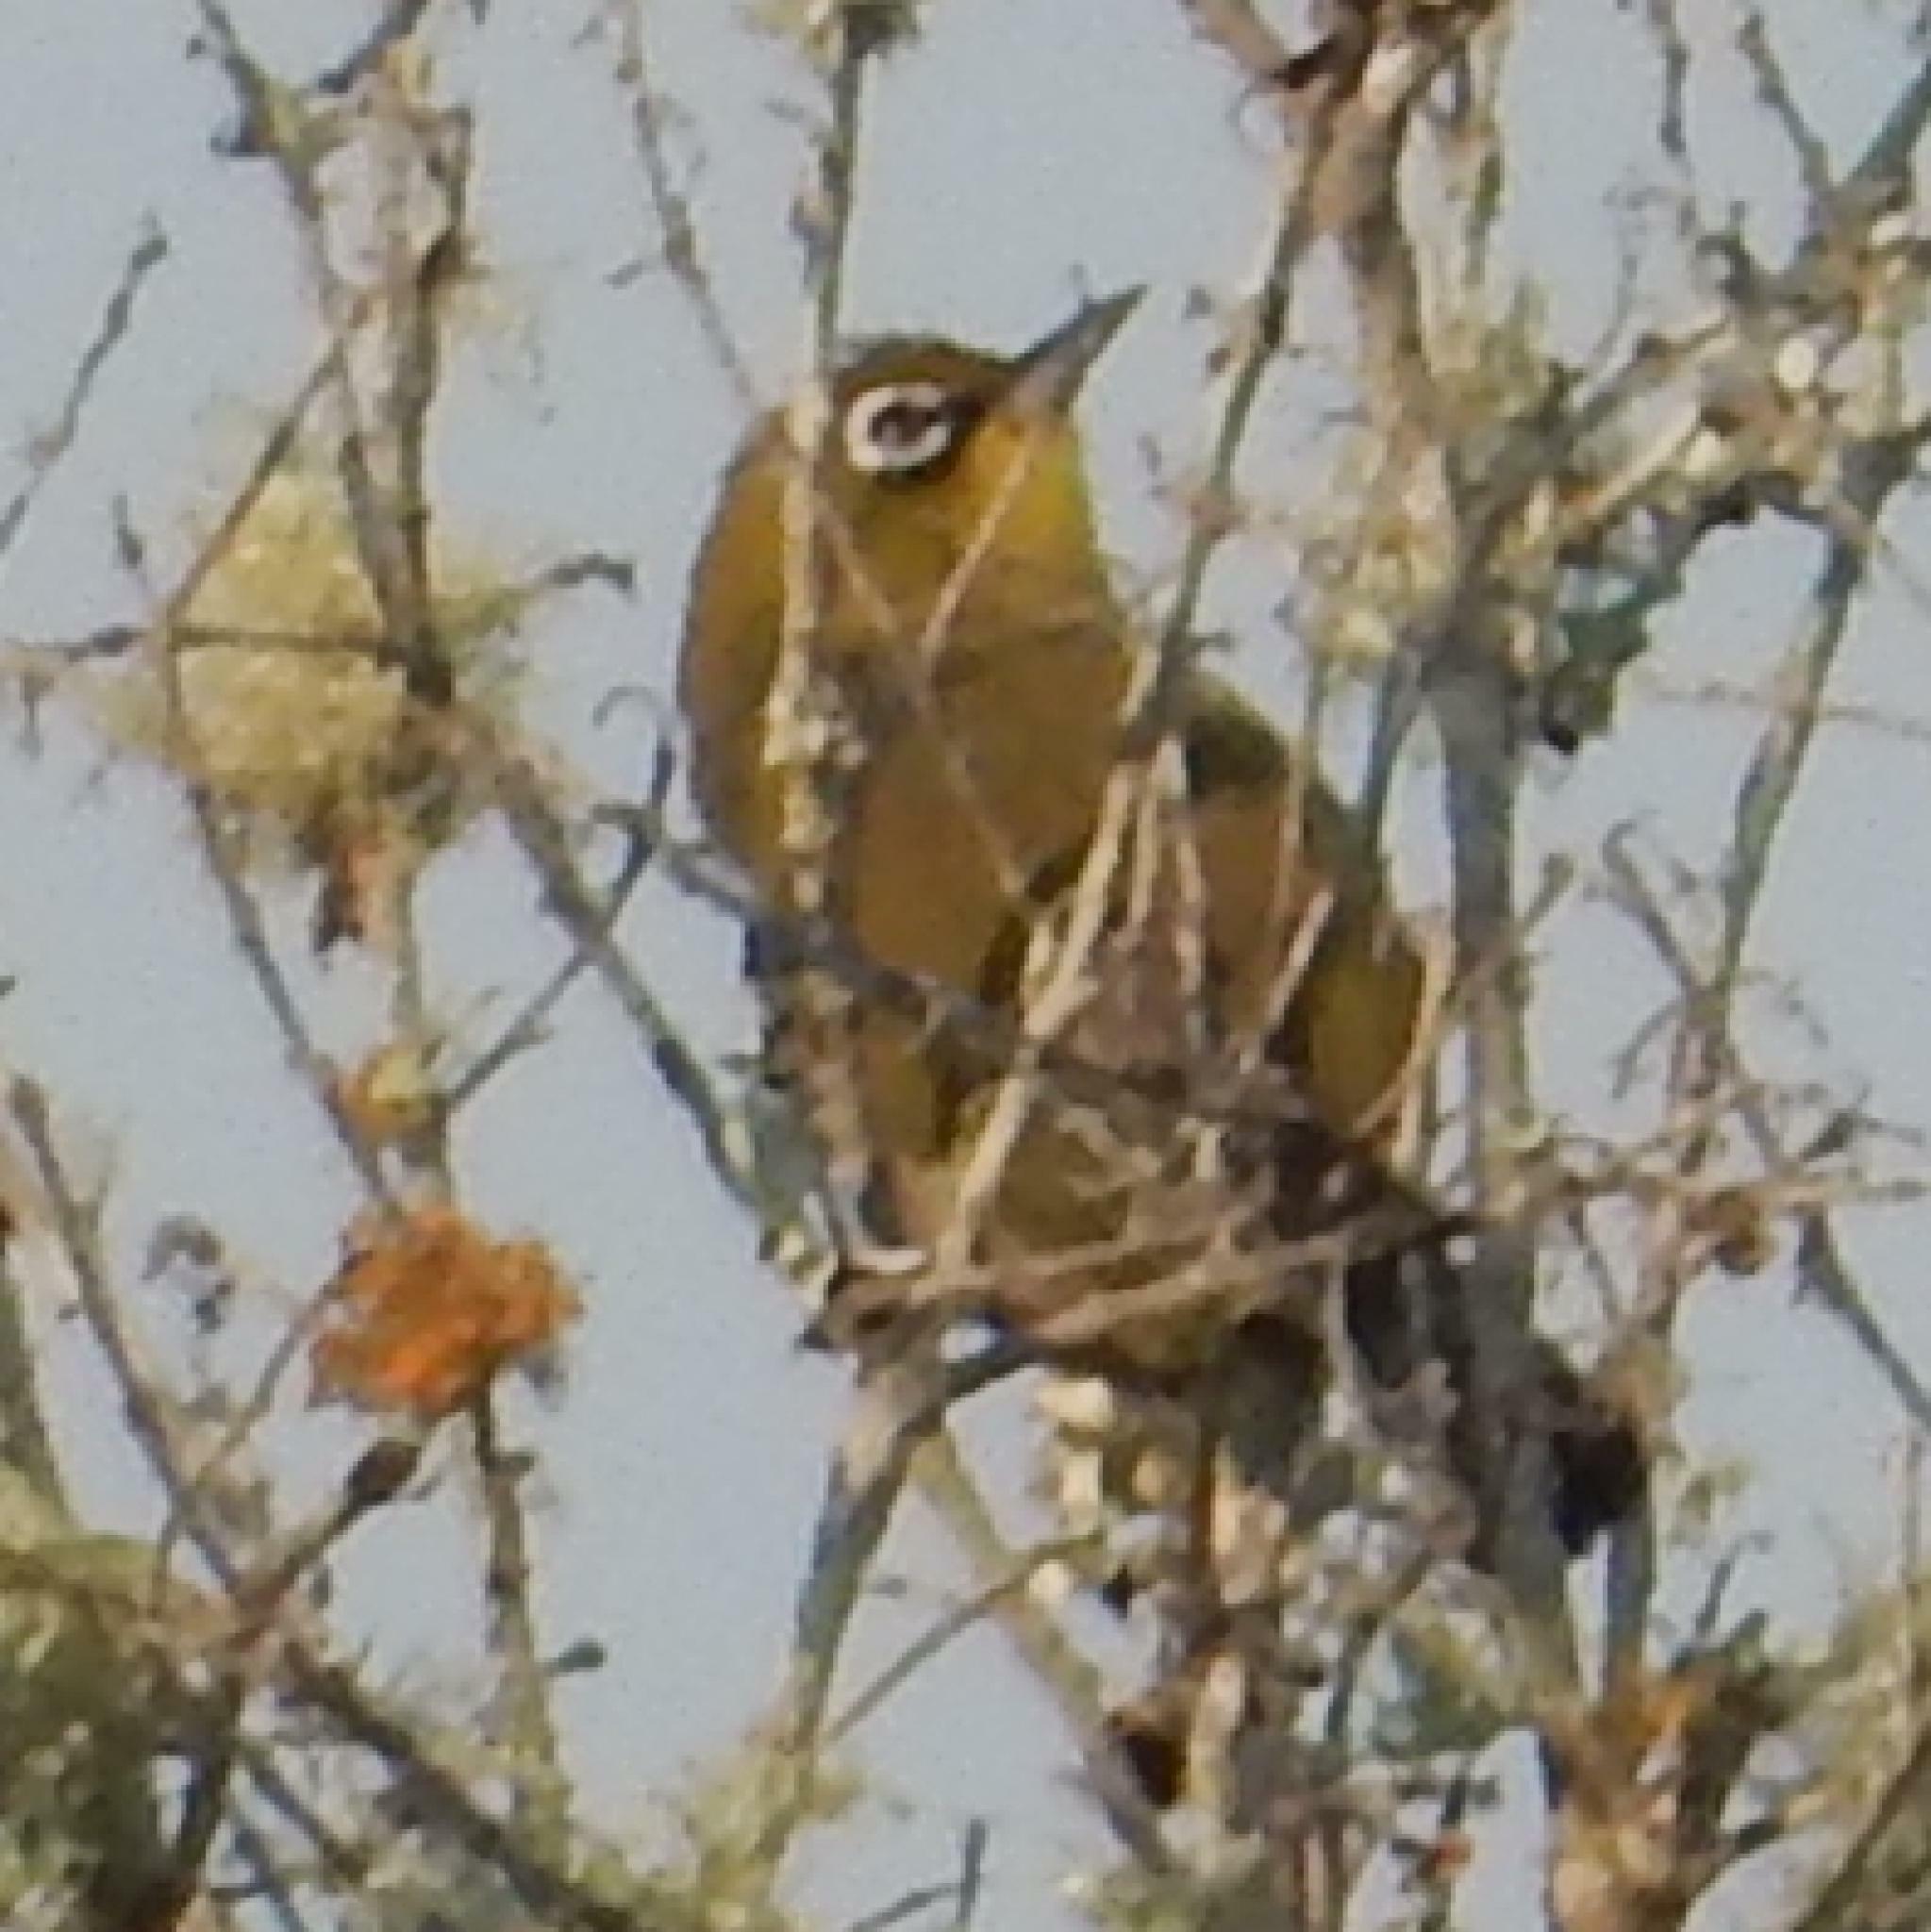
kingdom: Animalia
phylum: Chordata
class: Aves
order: Passeriformes
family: Zosteropidae
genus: Zosterops
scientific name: Zosterops virens
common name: Cape white-eye
